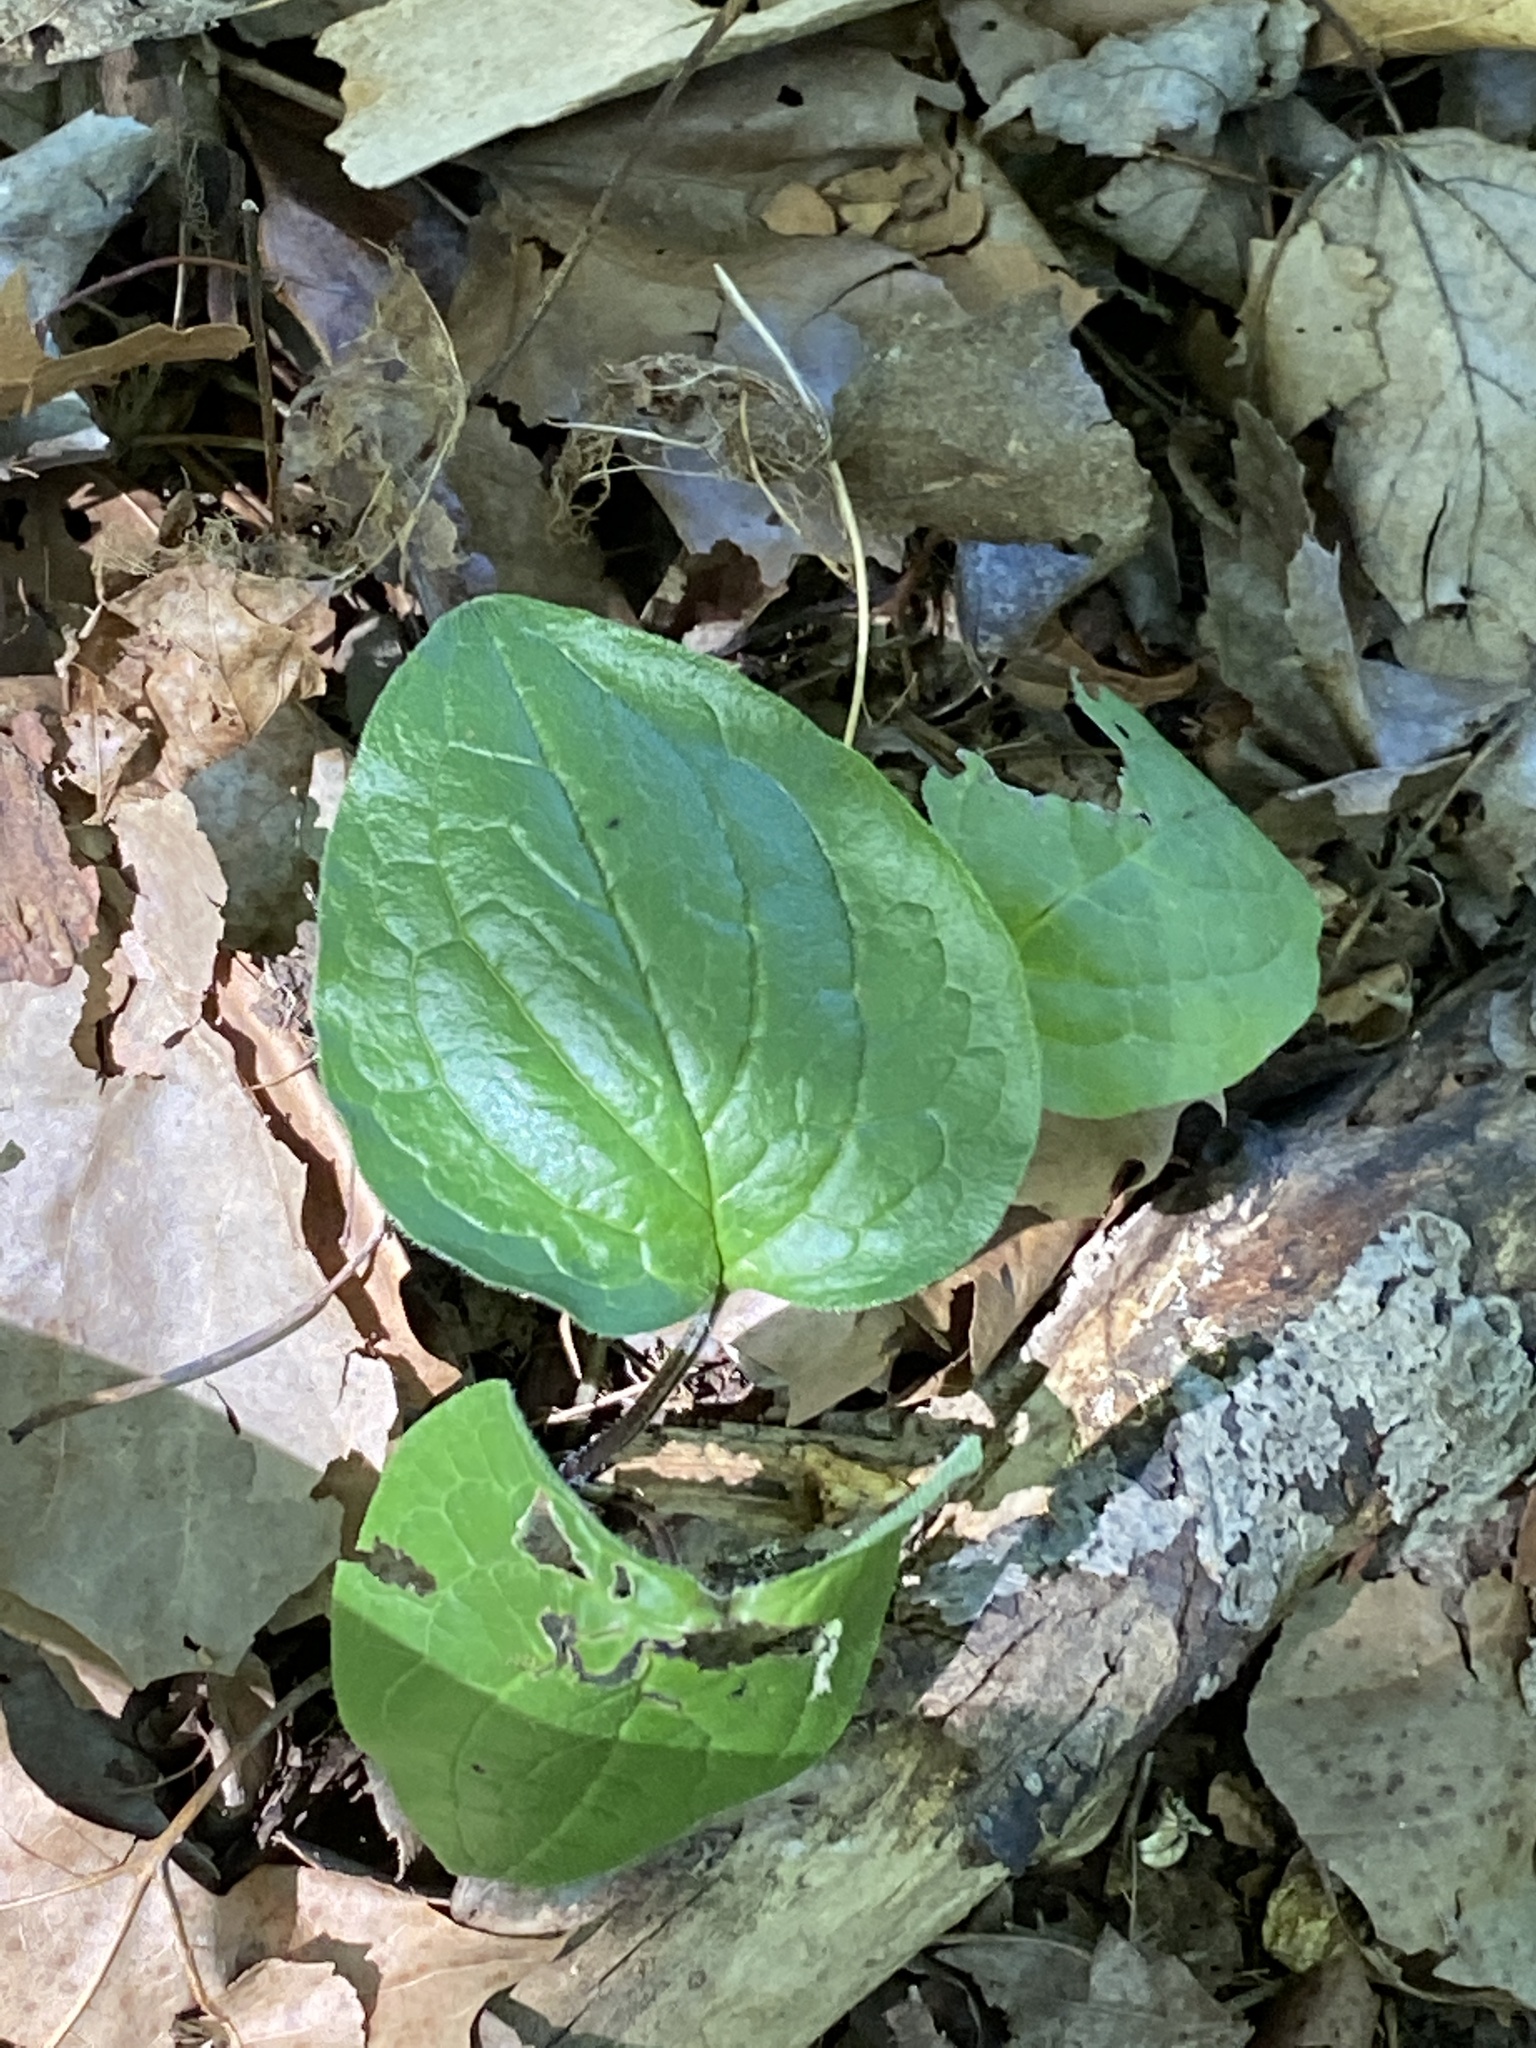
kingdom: Plantae
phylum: Tracheophyta
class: Magnoliopsida
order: Boraginales
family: Boraginaceae
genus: Hackelia
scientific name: Hackelia virginiana
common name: Beggar's-lice
